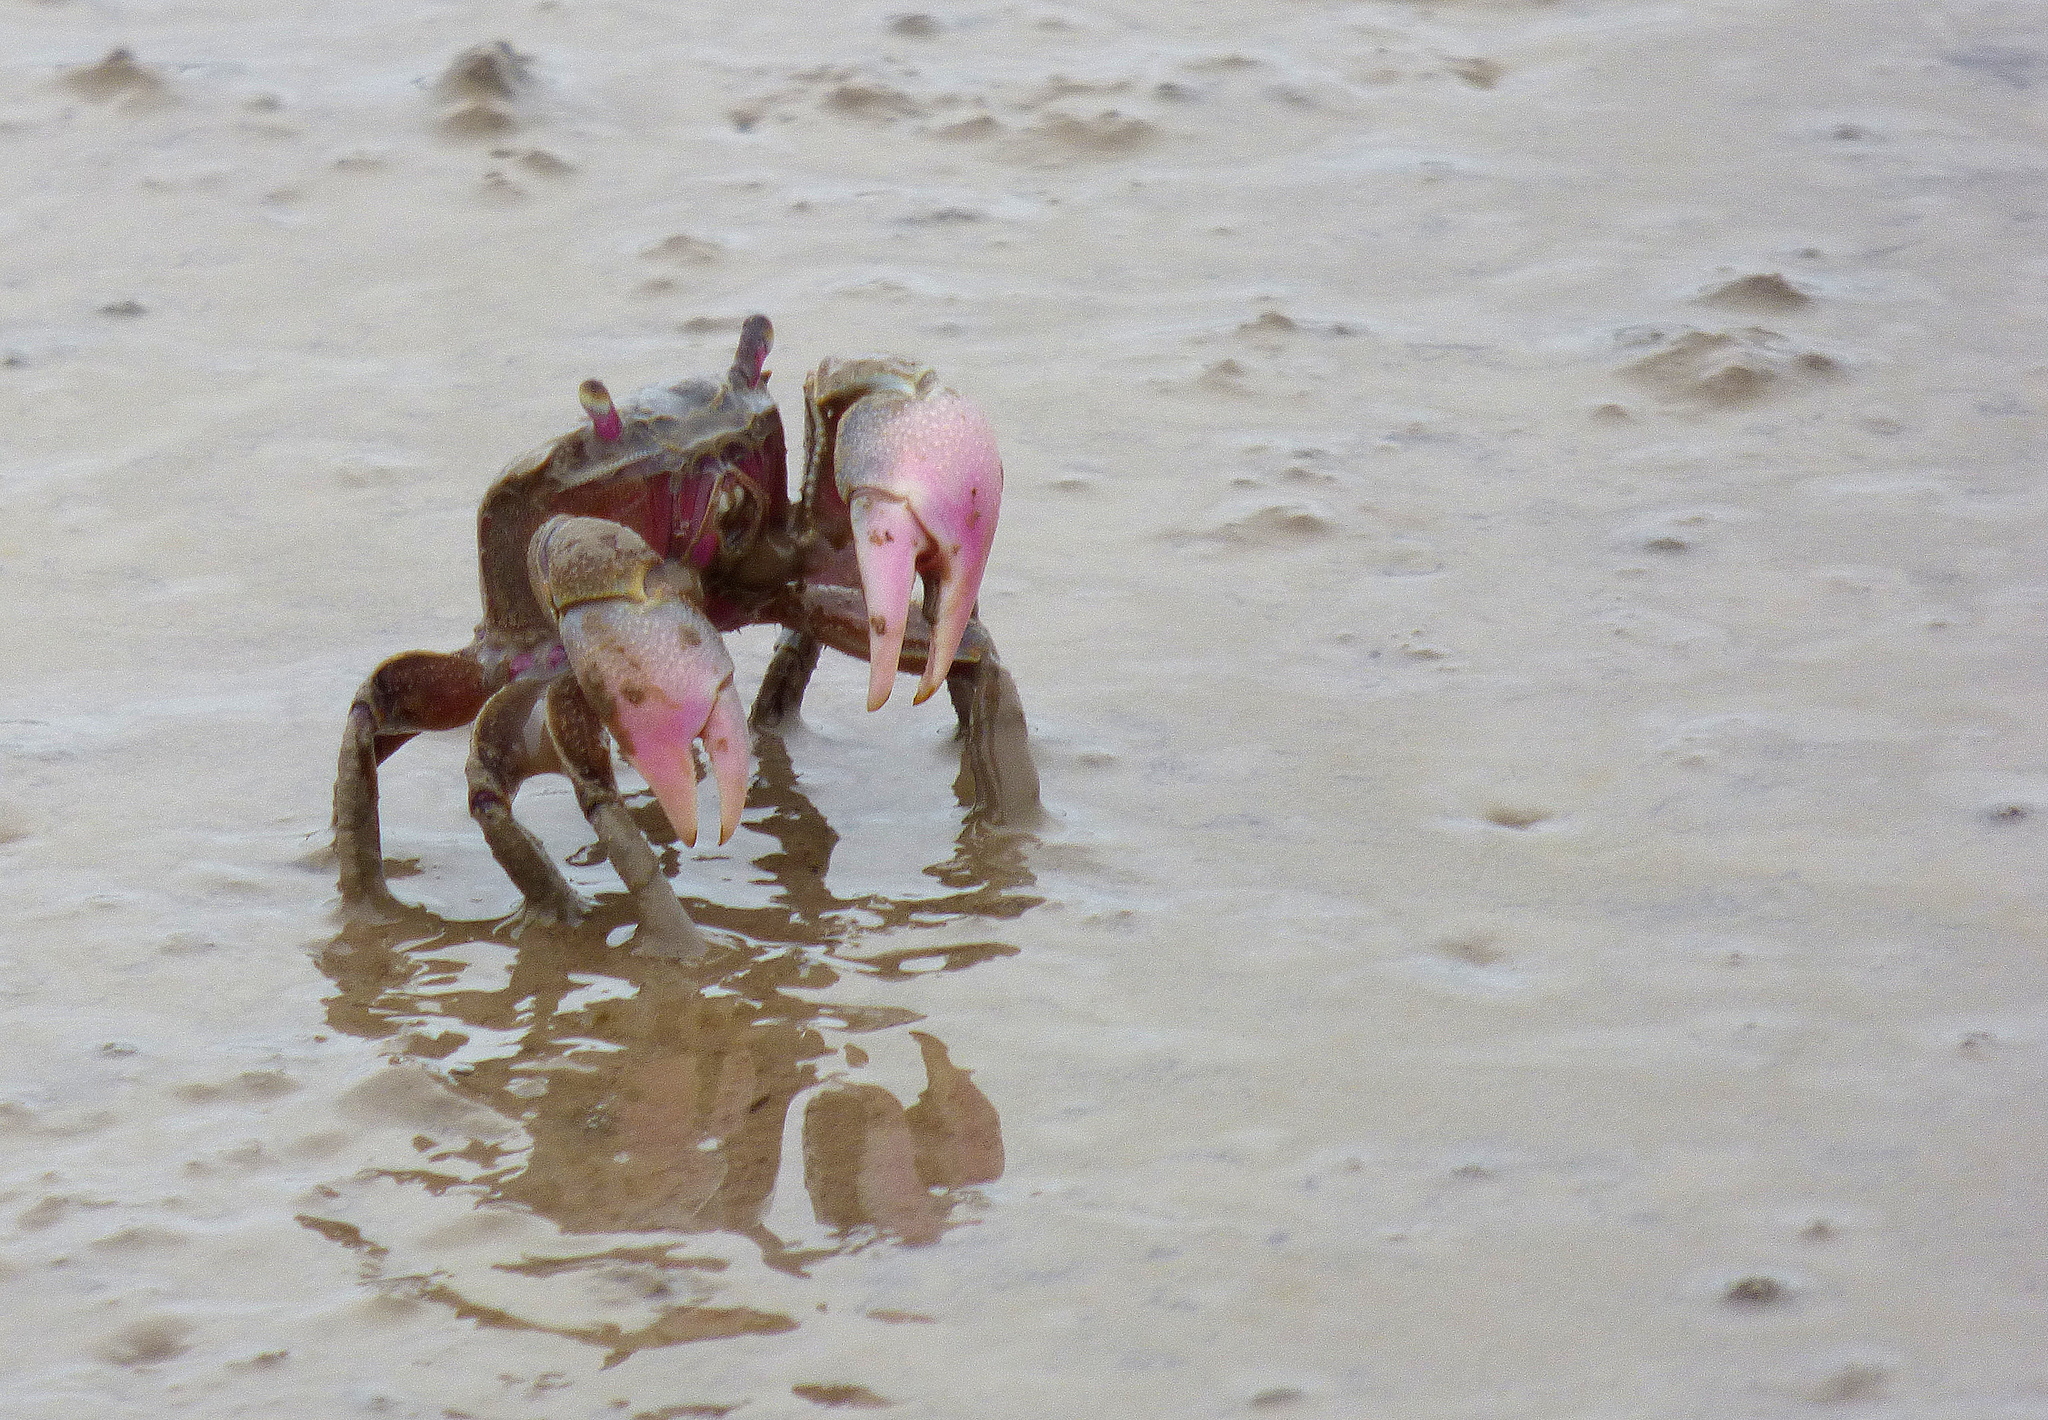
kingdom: Animalia
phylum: Arthropoda
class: Malacostraca
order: Decapoda
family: Varunidae
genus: Neohelice
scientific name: Neohelice granulata
